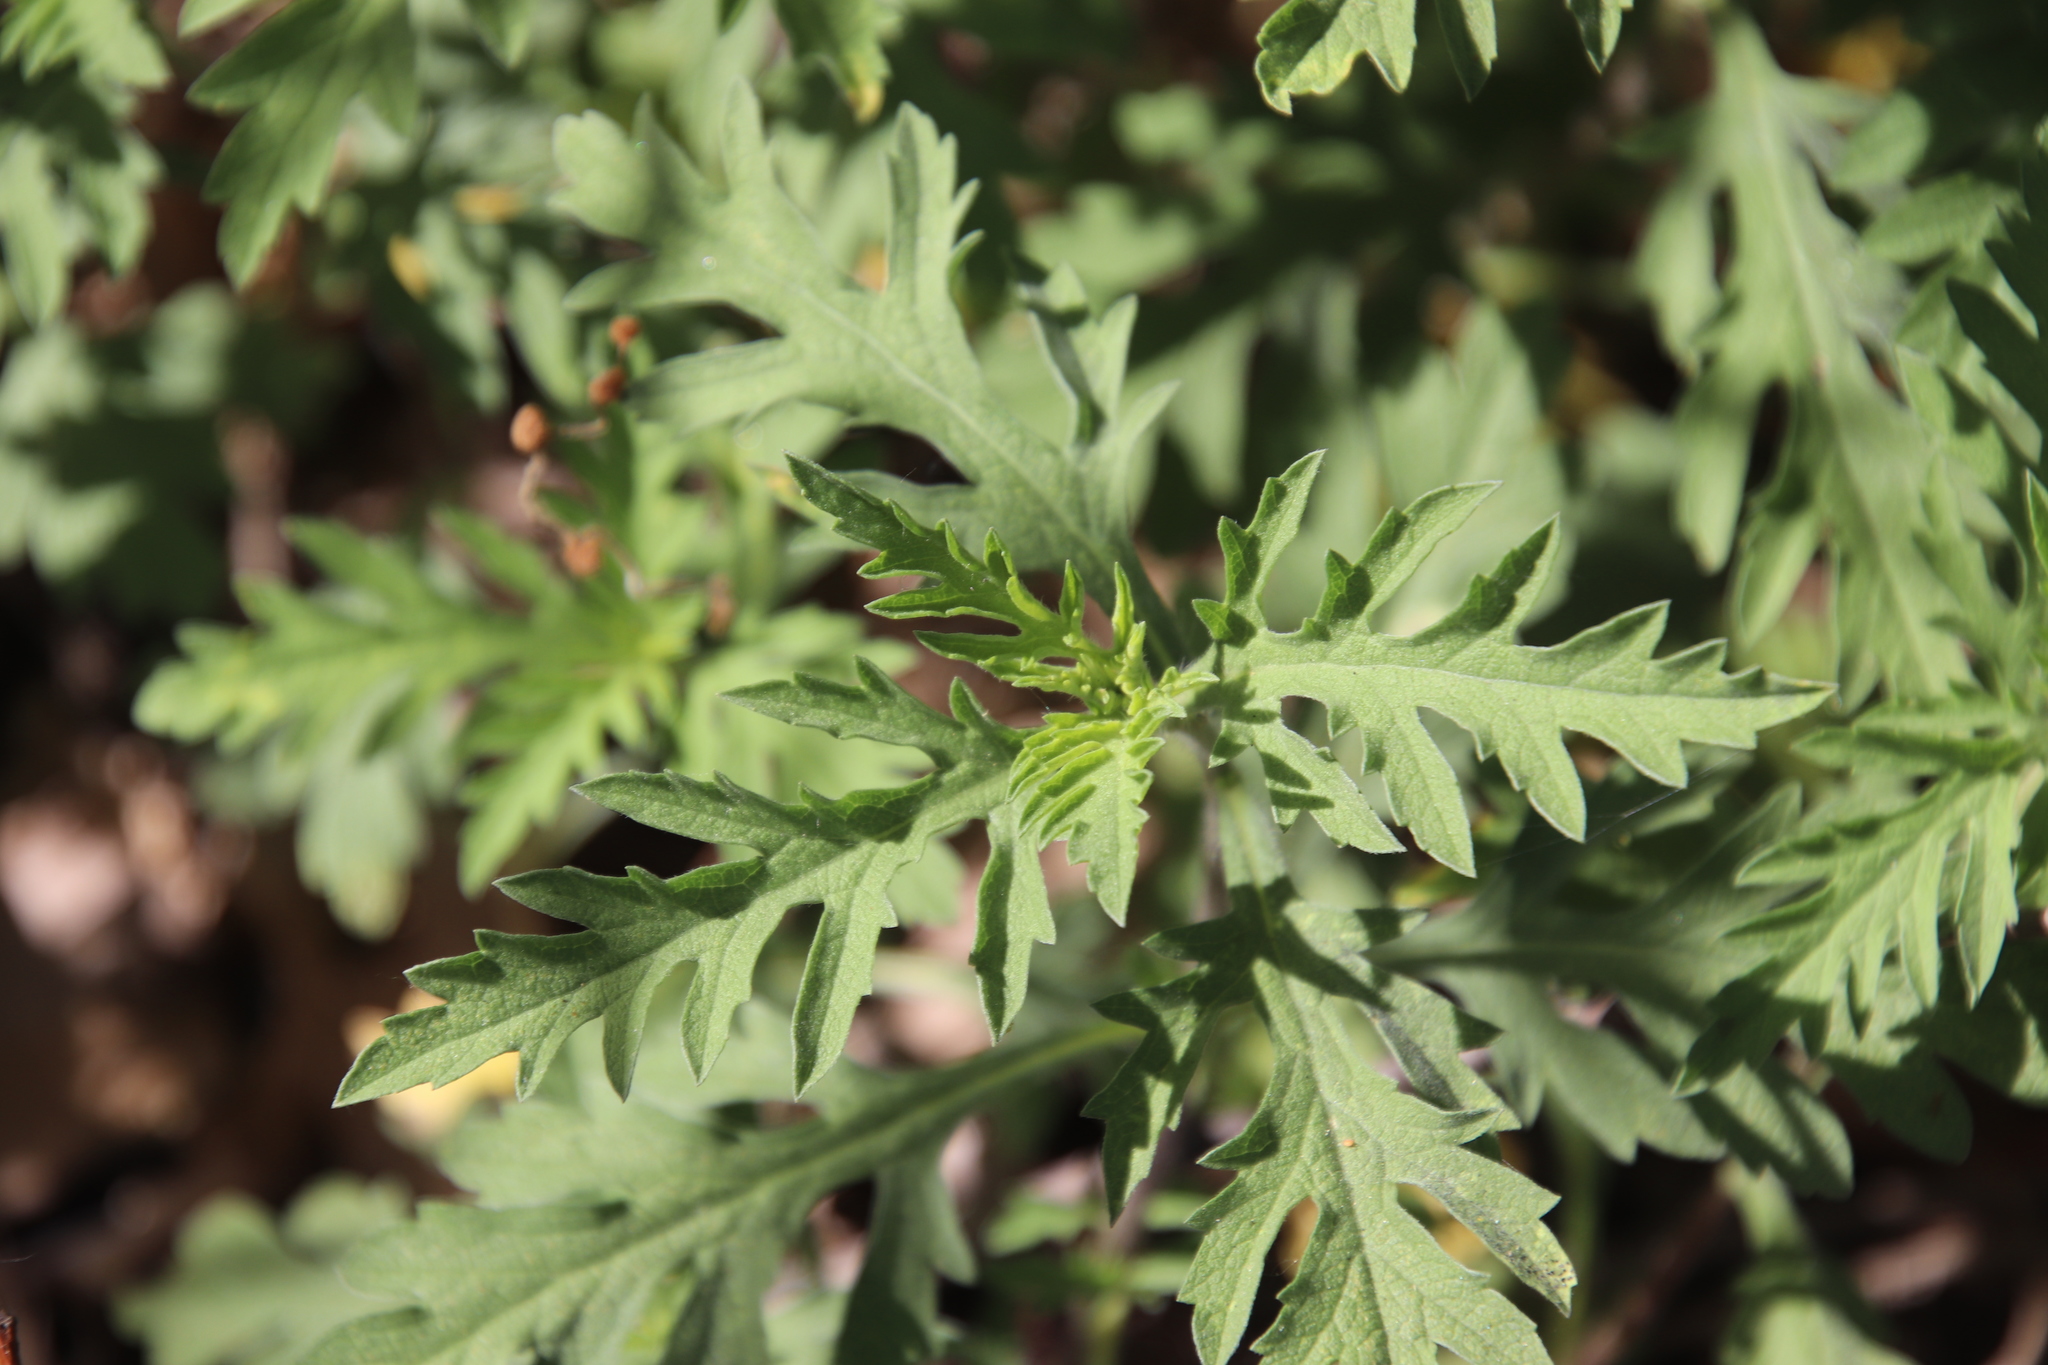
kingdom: Plantae
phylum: Tracheophyta
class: Magnoliopsida
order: Asterales
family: Asteraceae
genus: Ambrosia
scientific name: Ambrosia psilostachya
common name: Perennial ragweed
